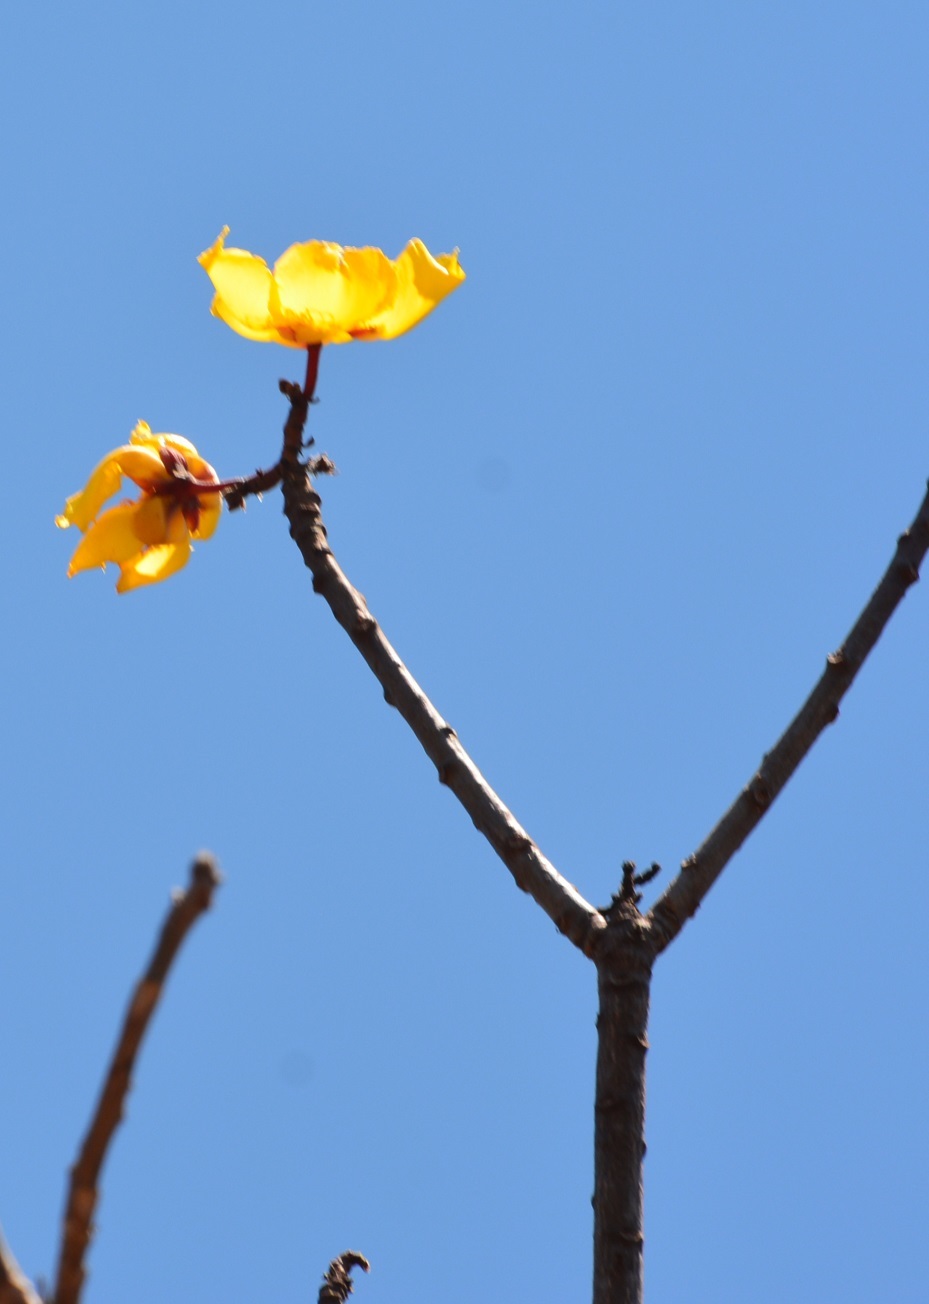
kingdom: Plantae
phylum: Tracheophyta
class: Magnoliopsida
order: Malvales
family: Cochlospermaceae
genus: Cochlospermum
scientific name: Cochlospermum vitifolium
